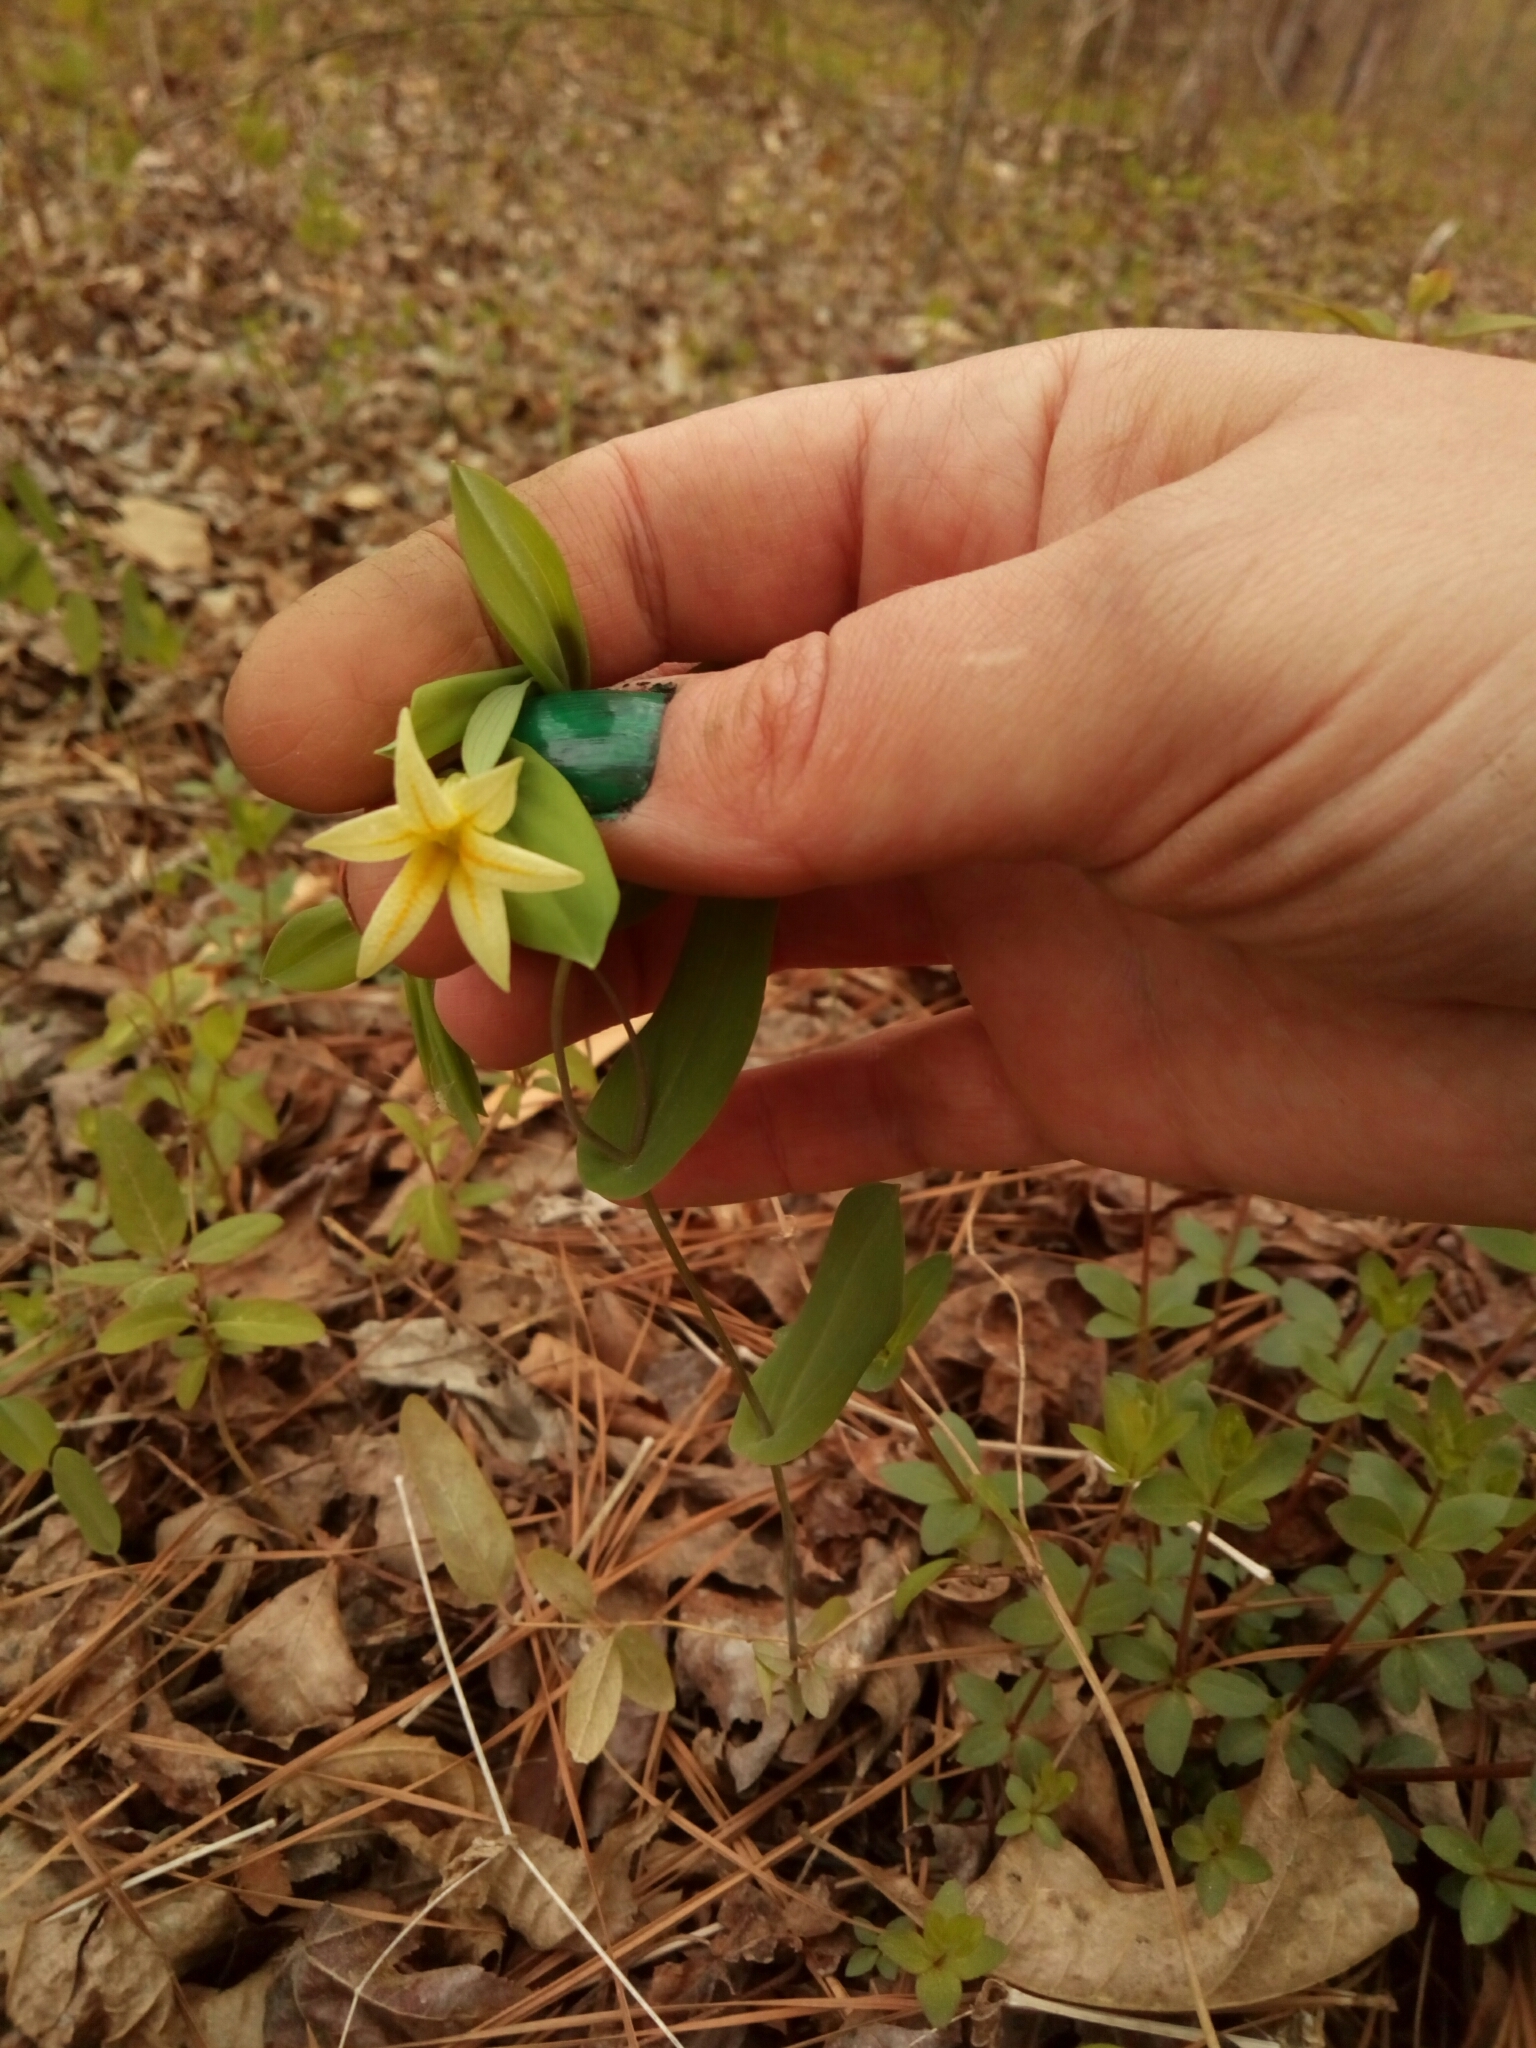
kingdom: Plantae
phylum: Tracheophyta
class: Liliopsida
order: Liliales
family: Colchicaceae
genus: Uvularia
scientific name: Uvularia perfoliata
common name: Perfoliate bellwort
